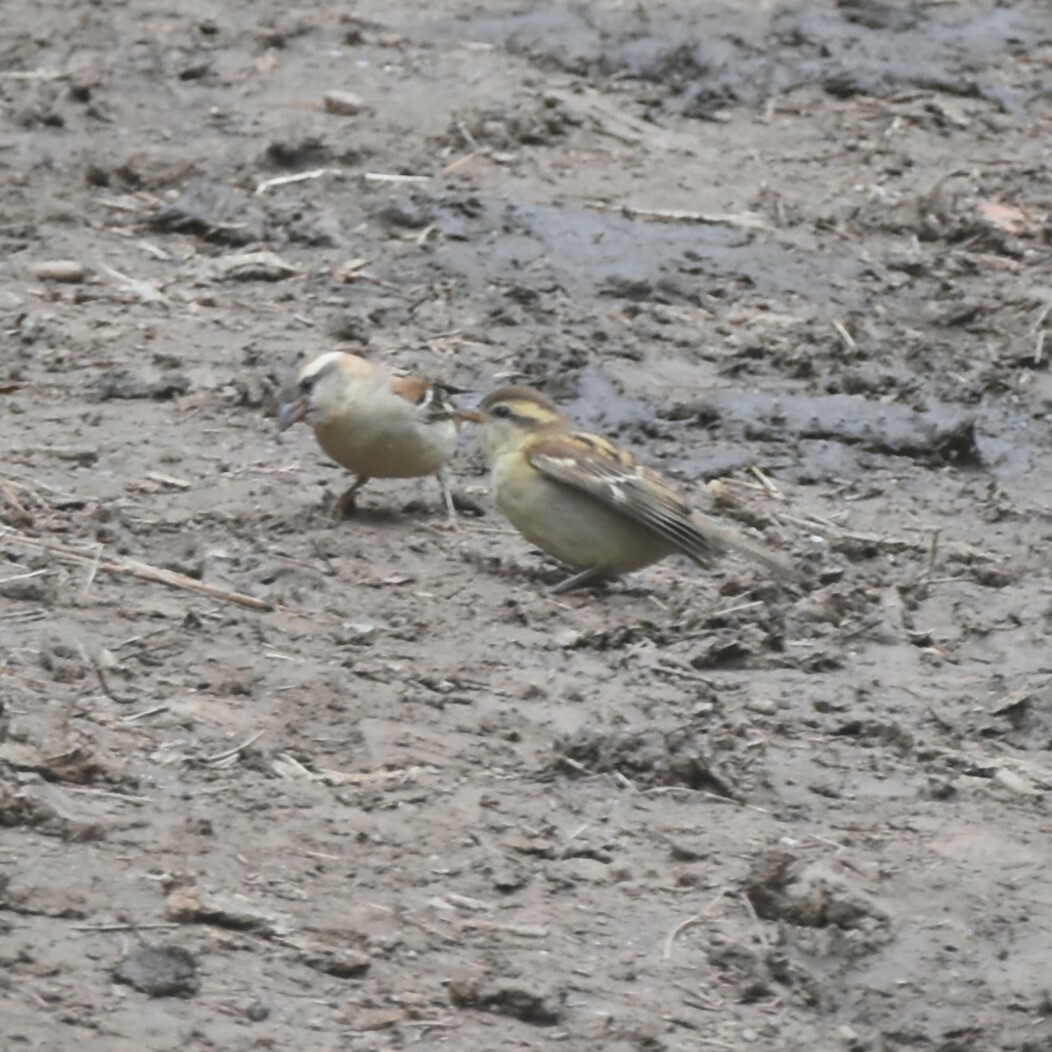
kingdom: Animalia
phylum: Chordata
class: Aves
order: Passeriformes
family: Passeridae
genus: Passer
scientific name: Passer cinnamomeus
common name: Russet sparrow
